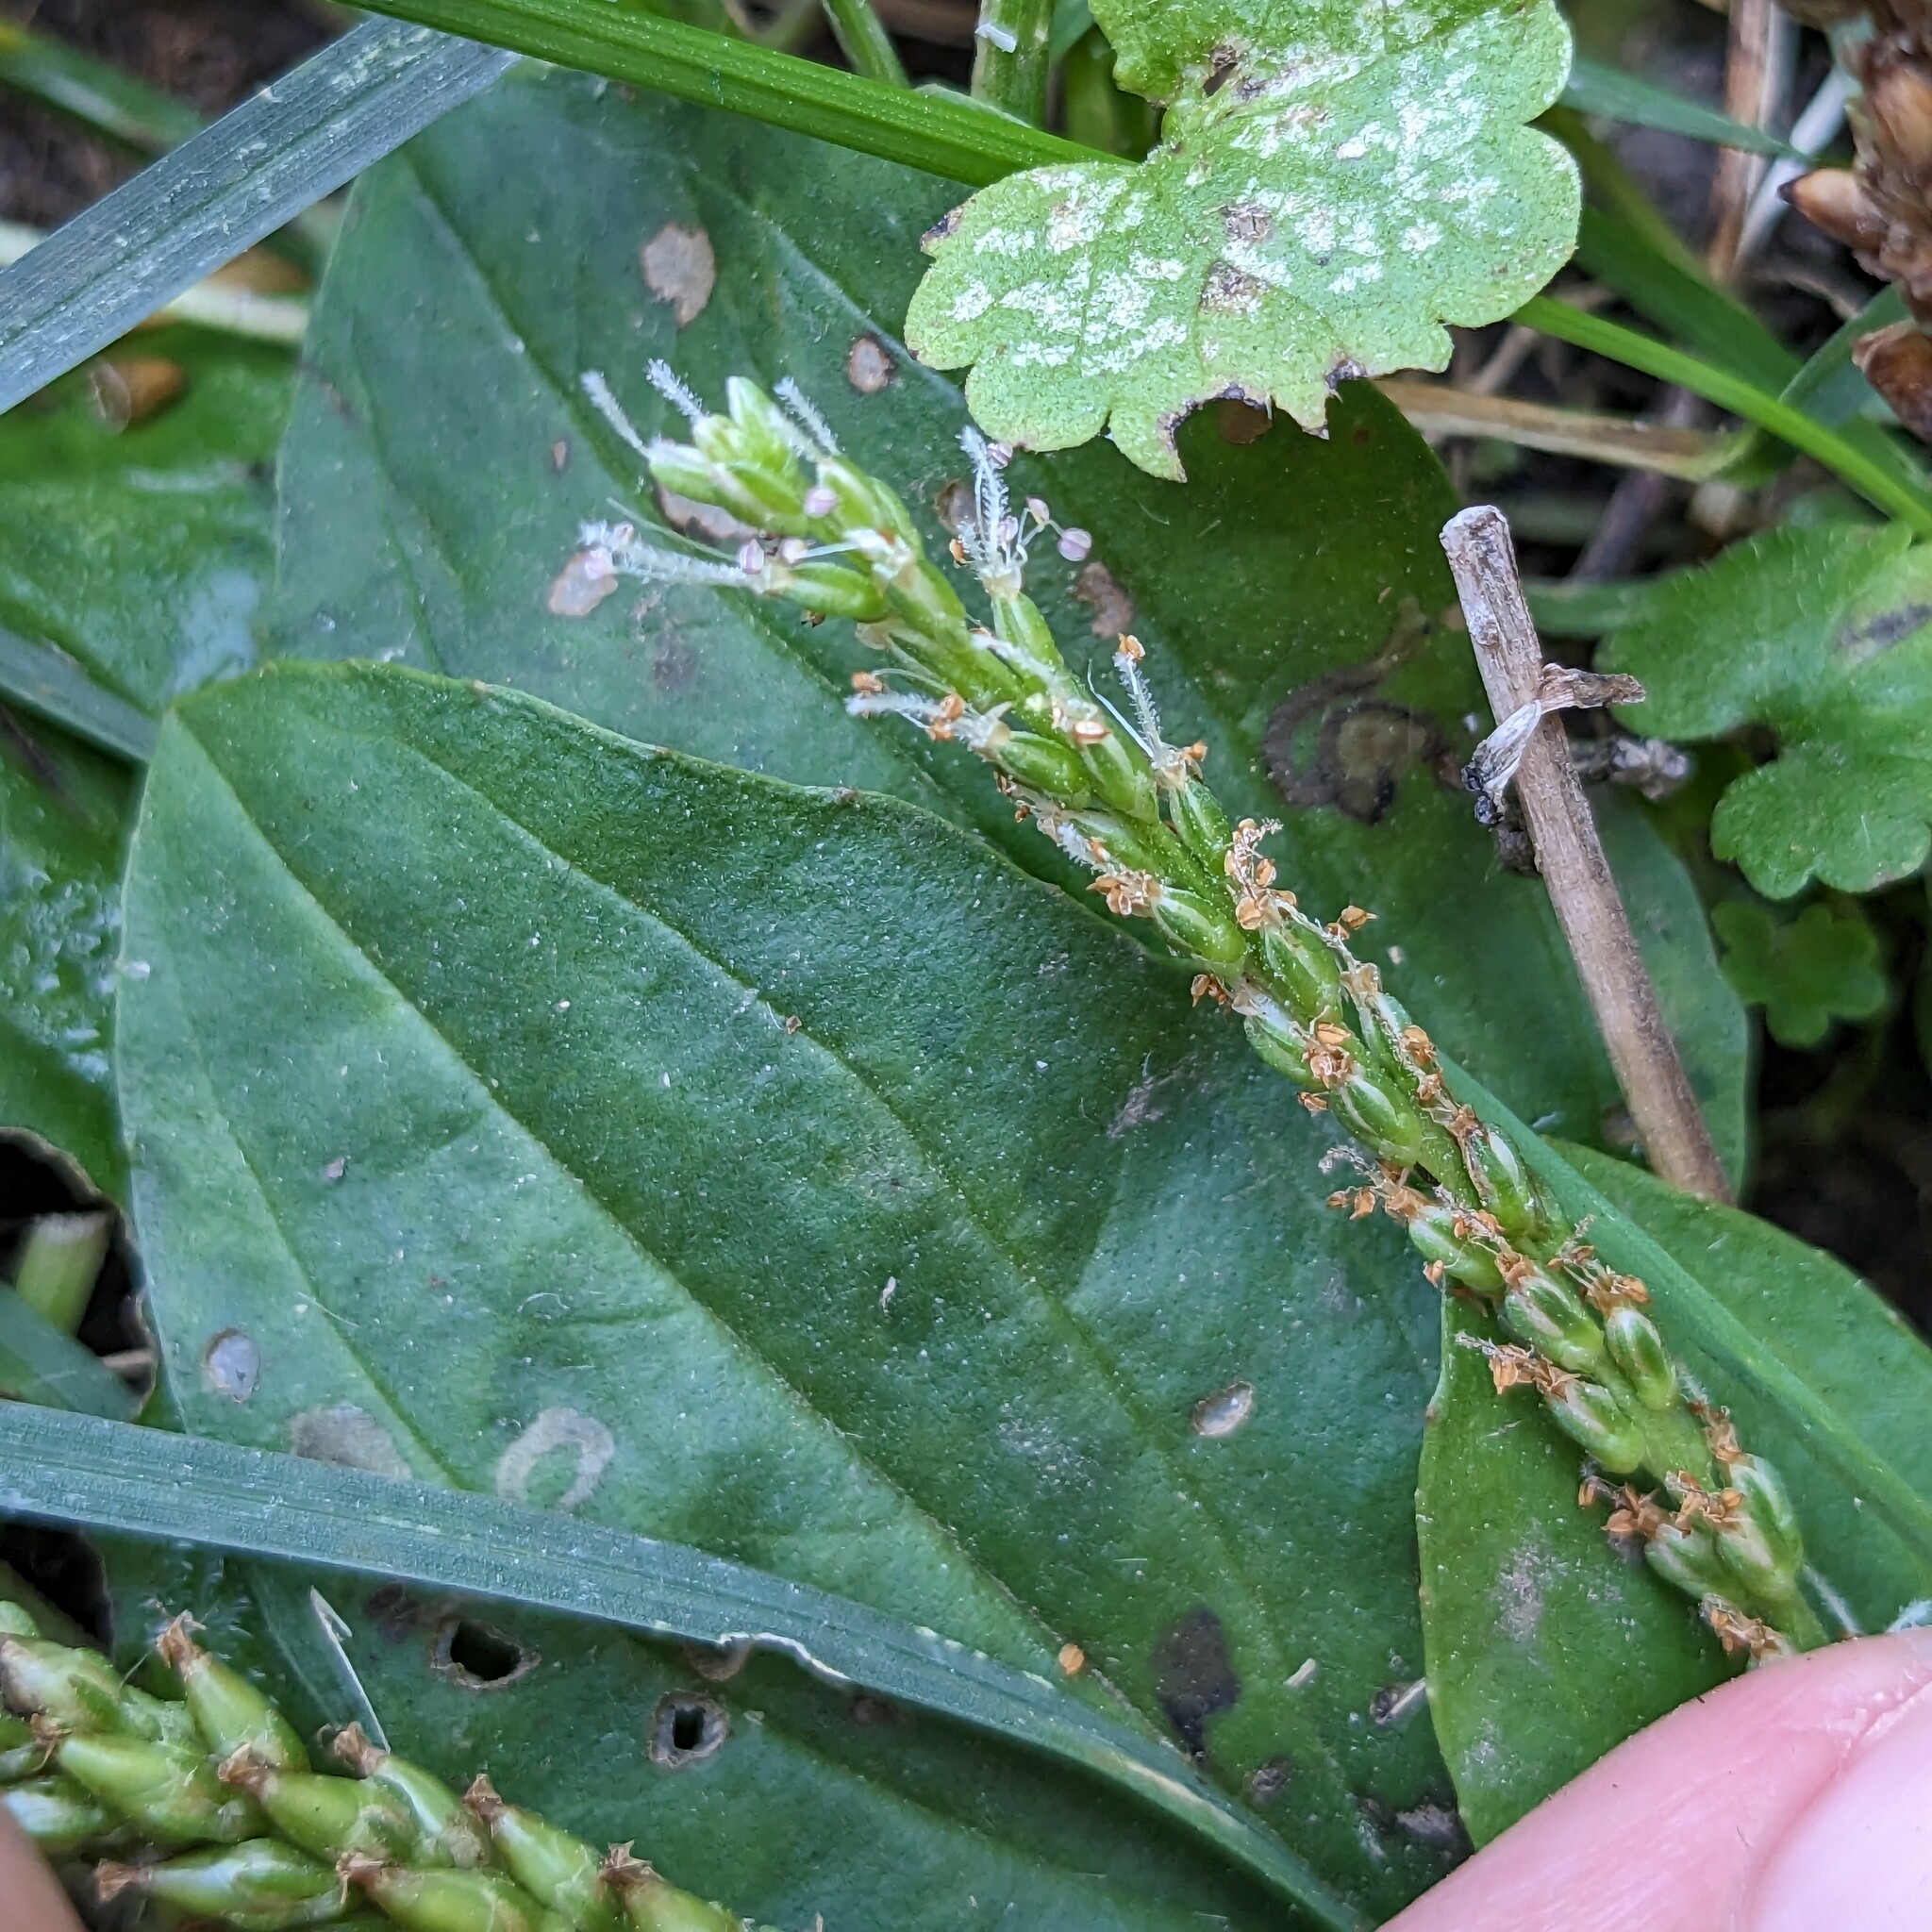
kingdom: Plantae
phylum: Tracheophyta
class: Magnoliopsida
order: Lamiales
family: Plantaginaceae
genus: Plantago
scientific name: Plantago rugelii
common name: American plantain
